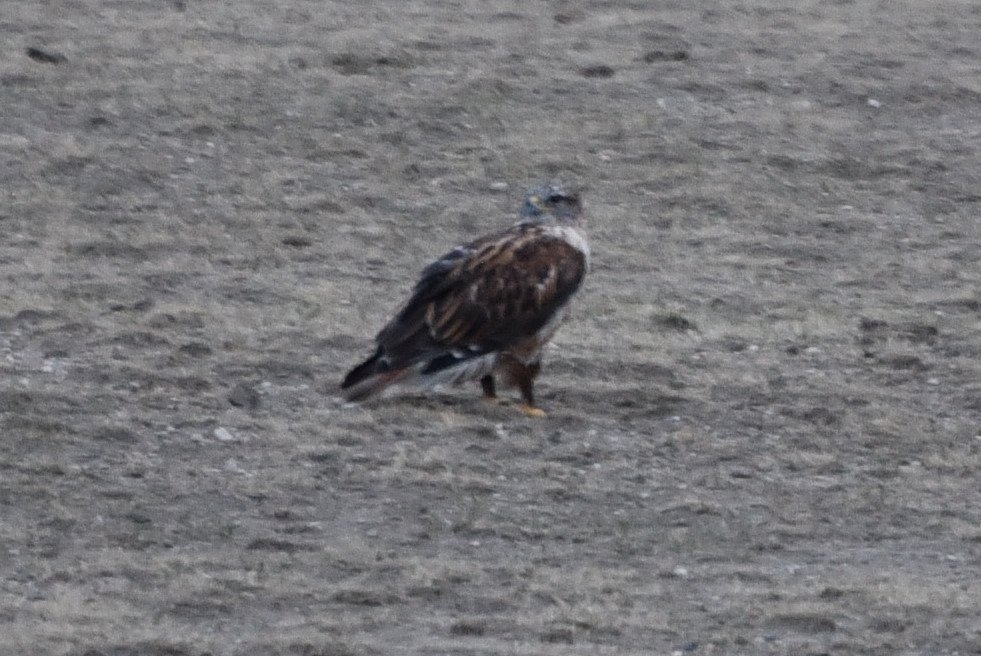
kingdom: Animalia
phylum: Chordata
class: Aves
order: Accipitriformes
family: Accipitridae
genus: Buteo
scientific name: Buteo regalis
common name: Ferruginous hawk
